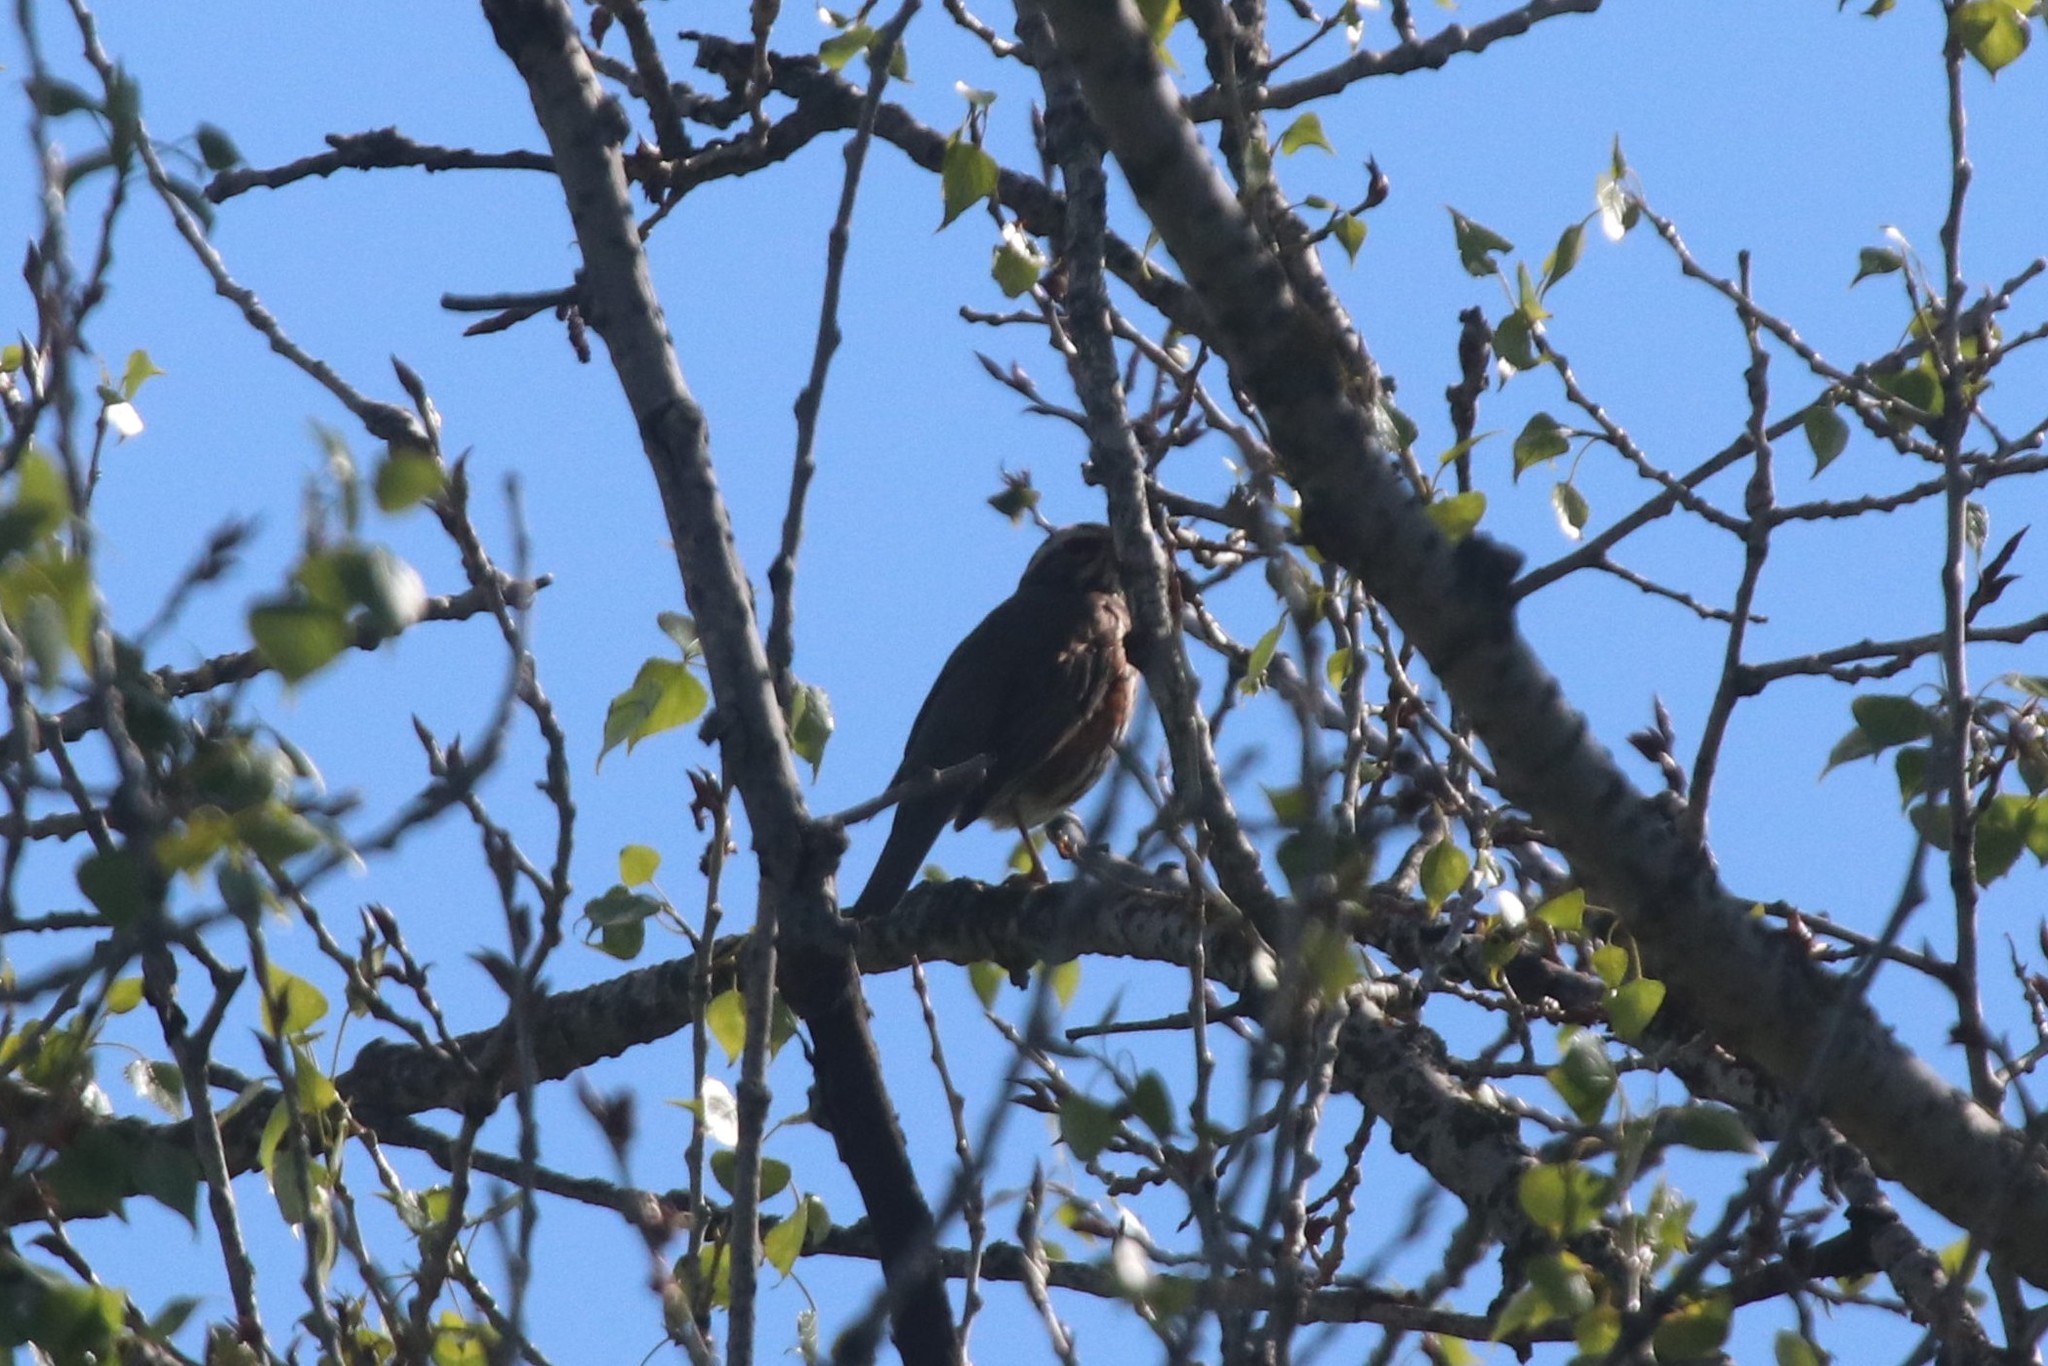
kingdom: Animalia
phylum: Chordata
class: Aves
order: Passeriformes
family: Turdidae
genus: Turdus
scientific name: Turdus iliacus
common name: Redwing
